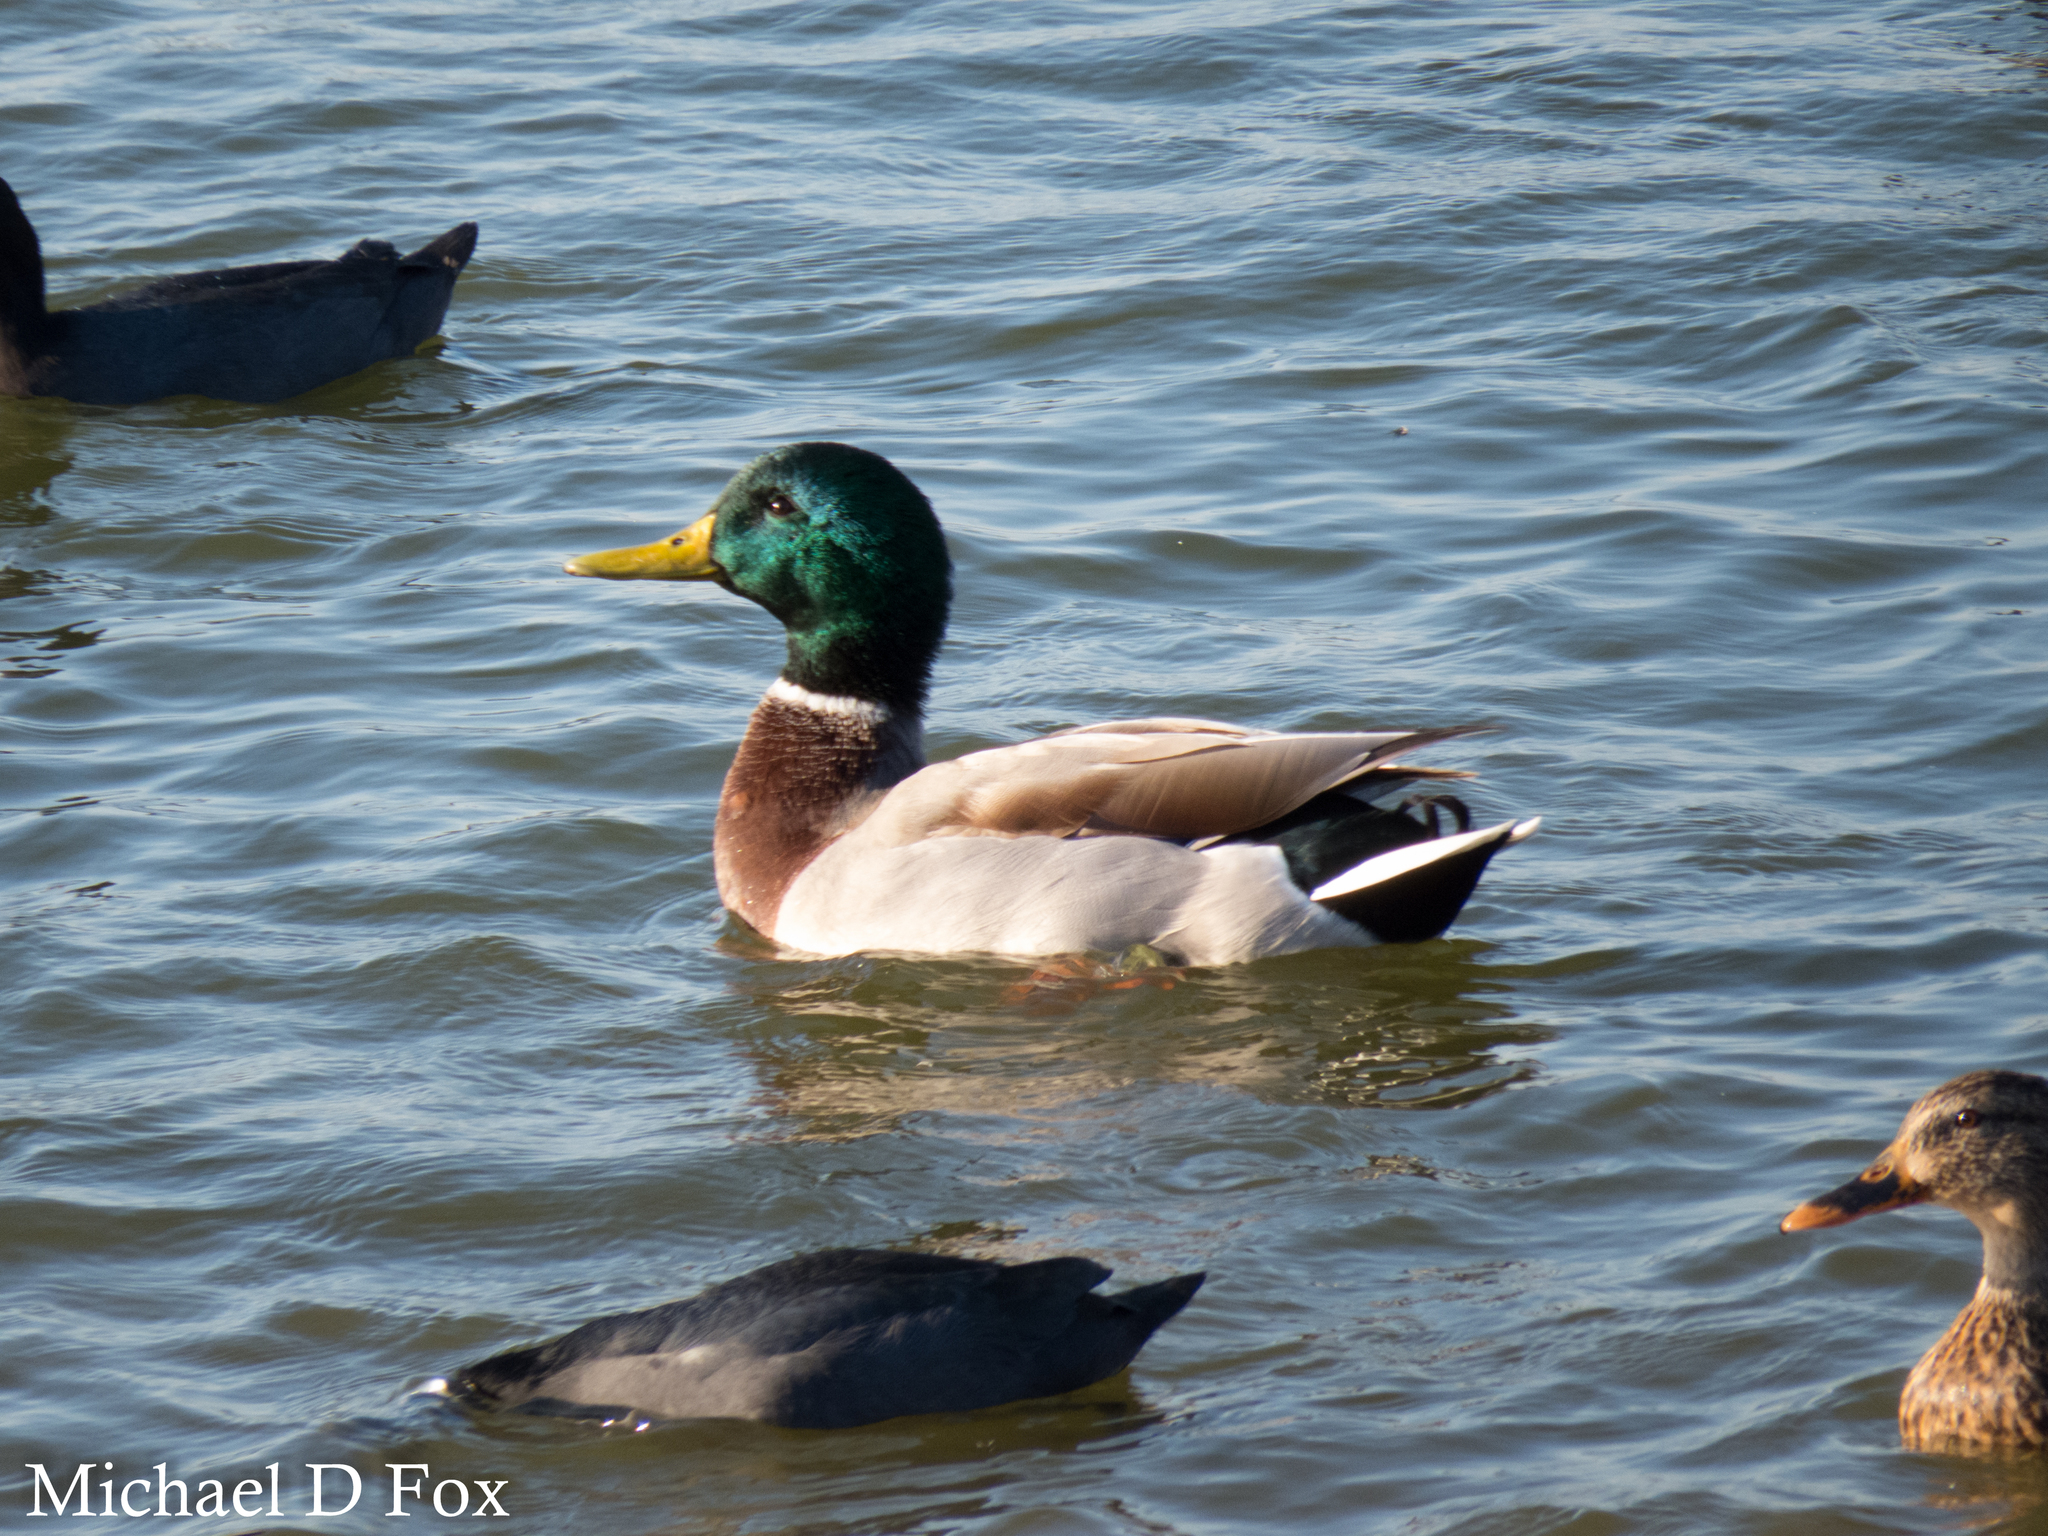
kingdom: Animalia
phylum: Chordata
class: Aves
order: Anseriformes
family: Anatidae
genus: Anas
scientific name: Anas platyrhynchos
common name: Mallard
